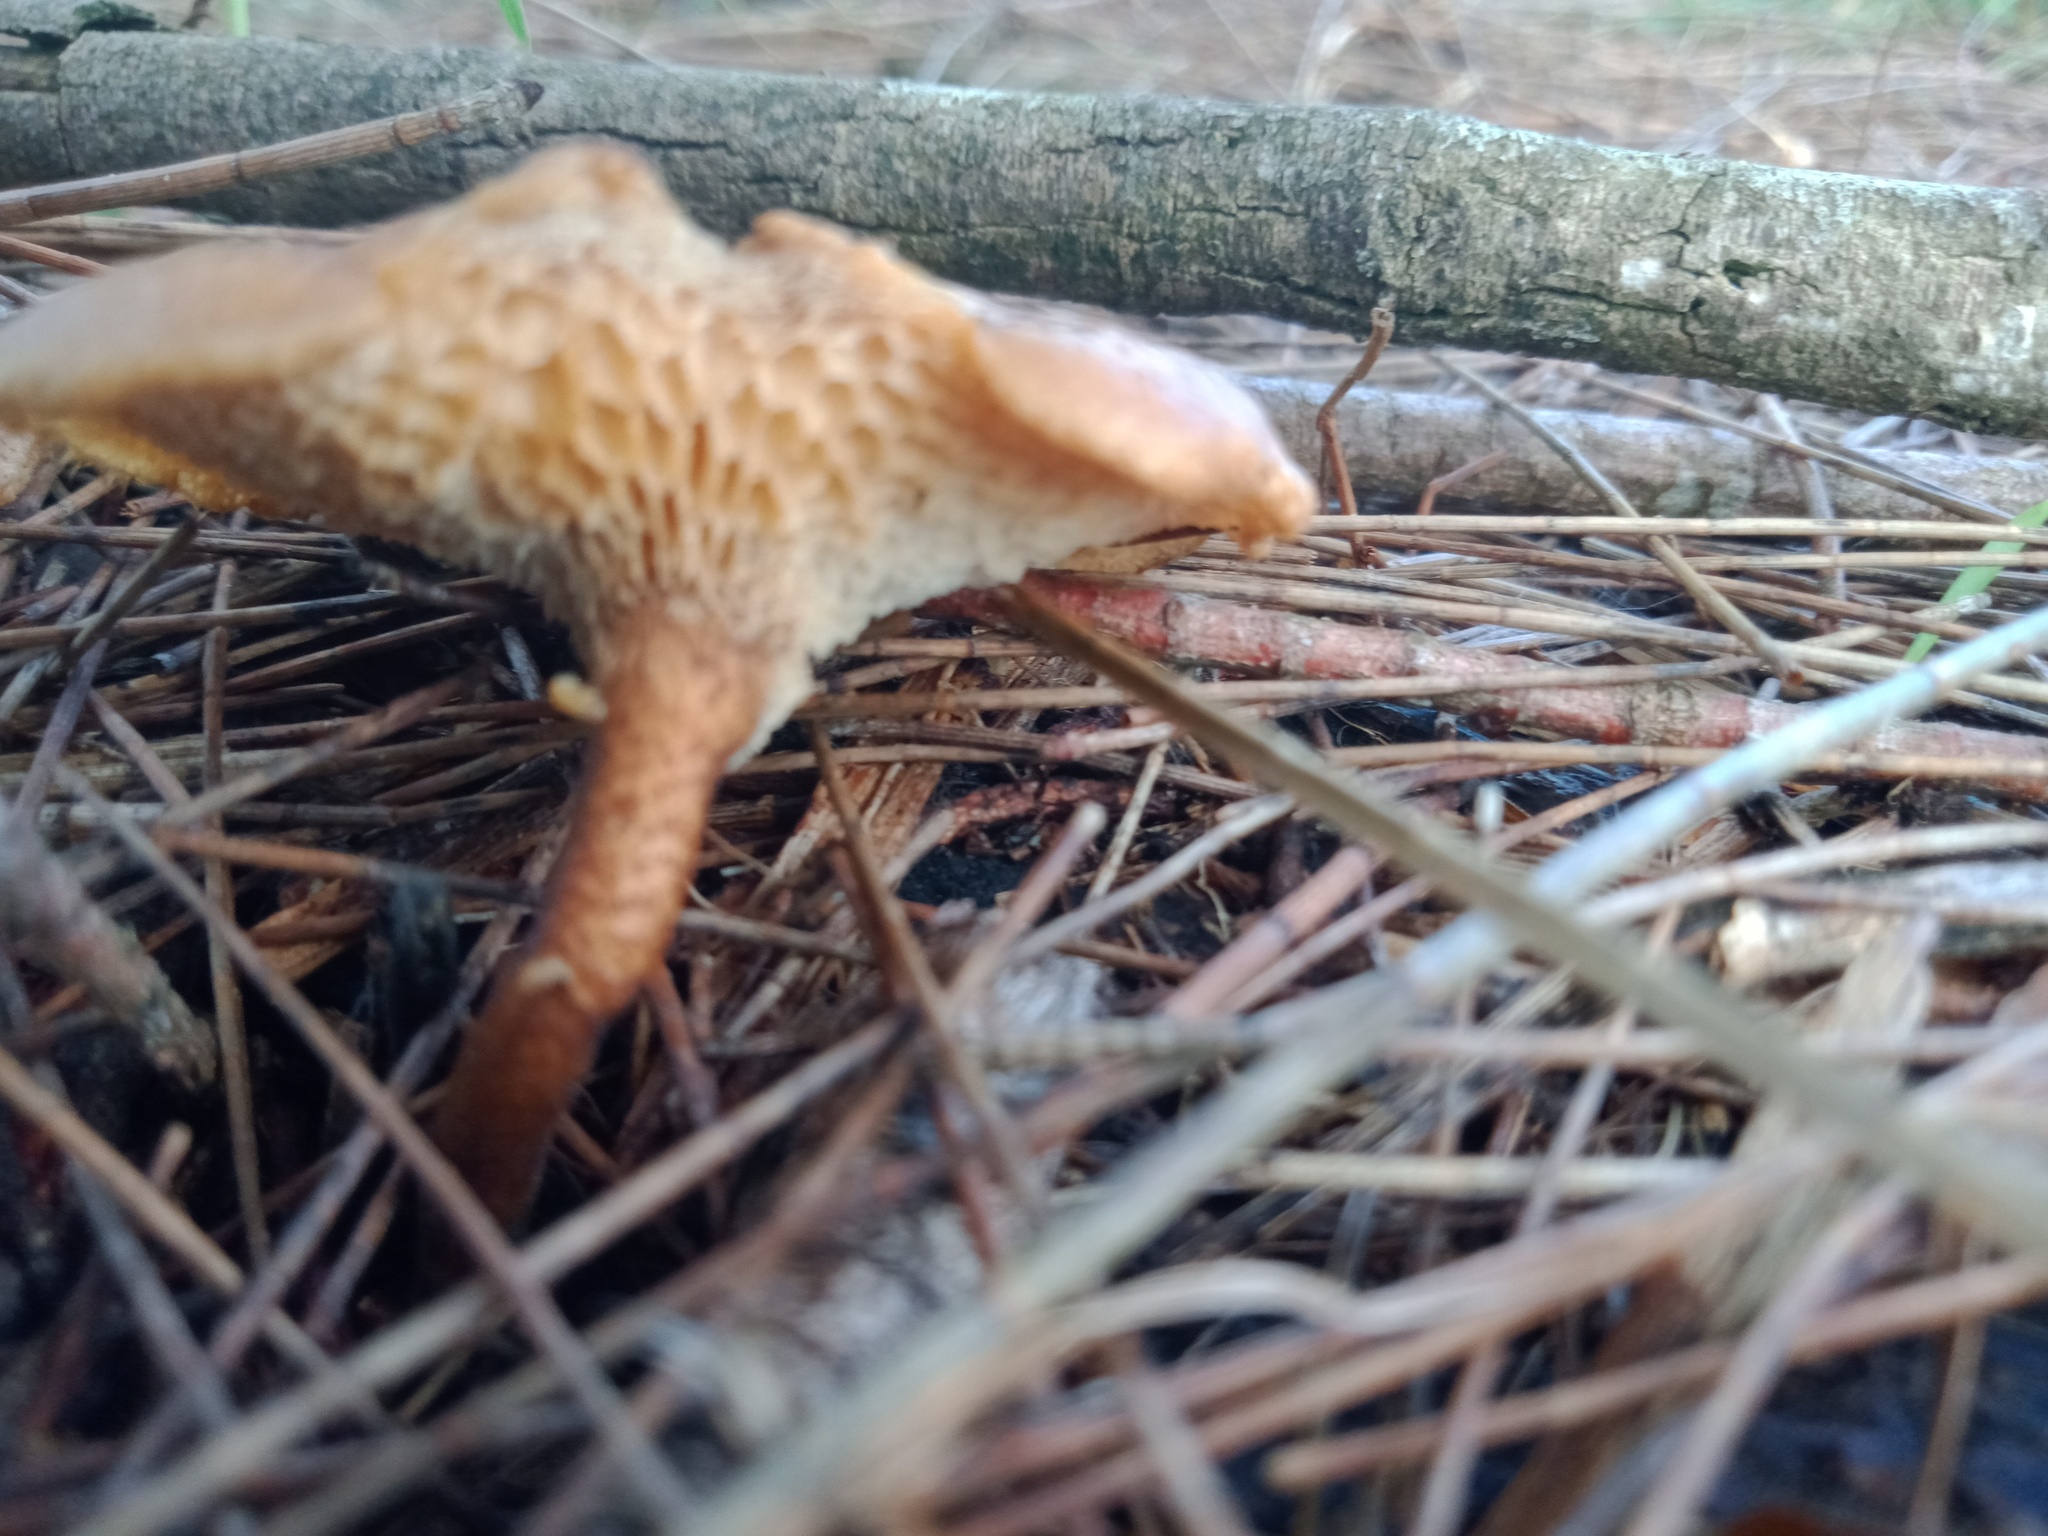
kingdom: Fungi
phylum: Basidiomycota
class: Agaricomycetes
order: Polyporales
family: Polyporaceae
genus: Lentinus
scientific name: Lentinus arcularius
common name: Spring polypore
